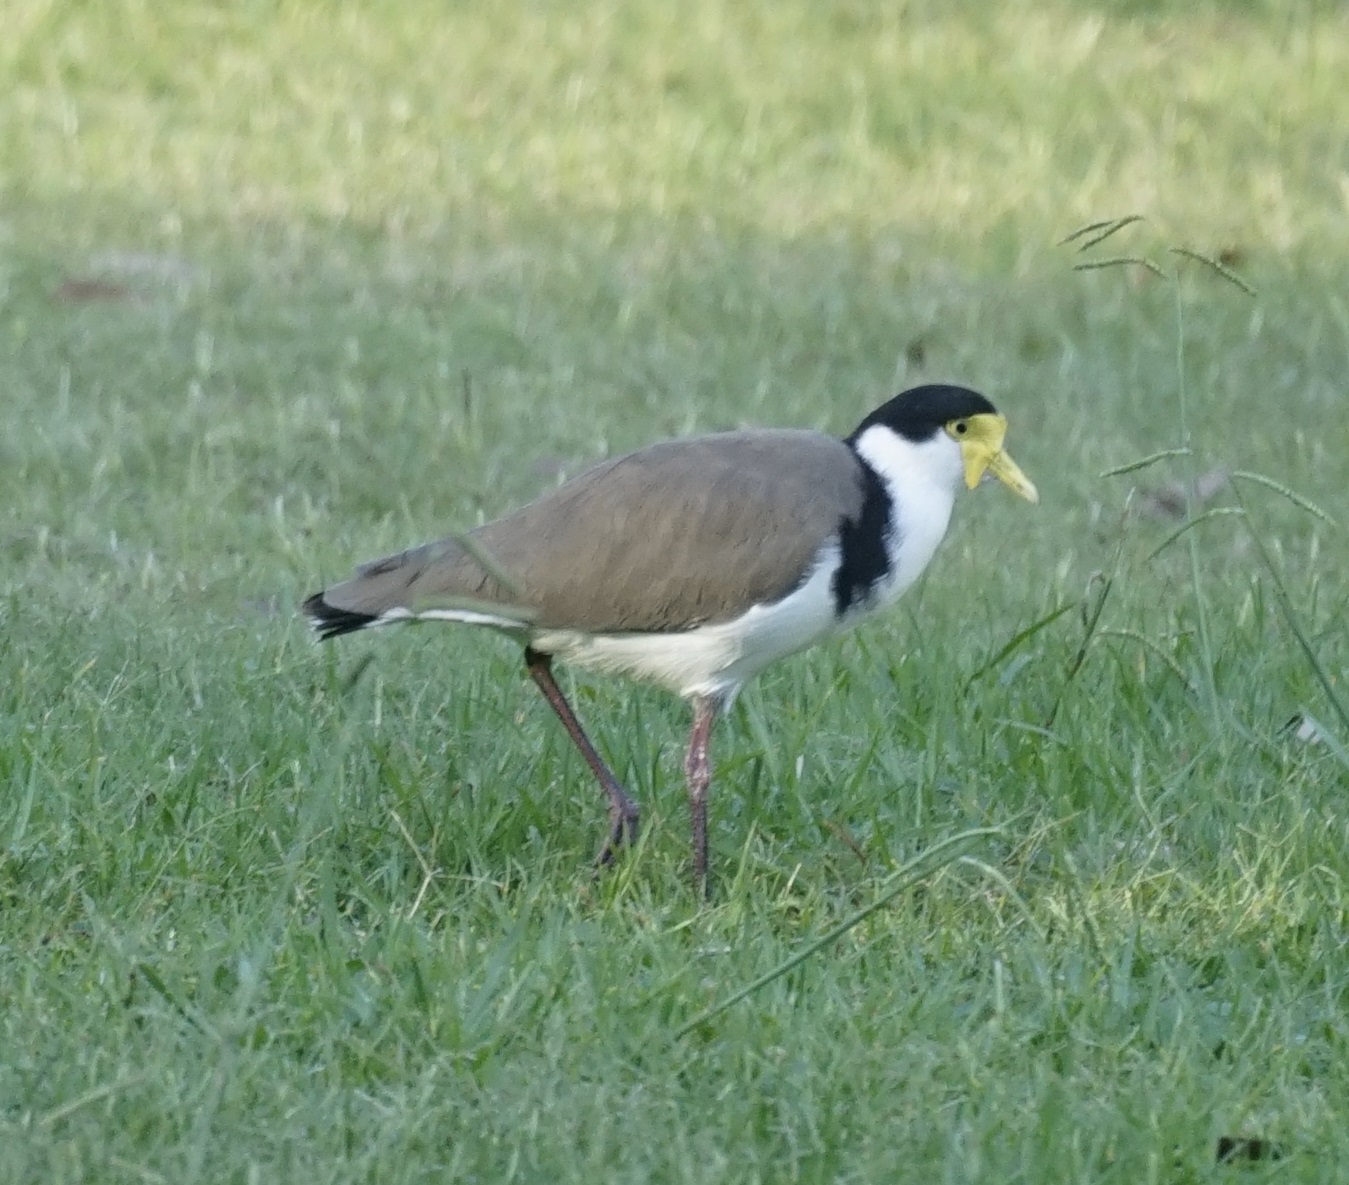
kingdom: Animalia
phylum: Chordata
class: Aves
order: Charadriiformes
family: Charadriidae
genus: Vanellus
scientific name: Vanellus miles
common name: Masked lapwing
